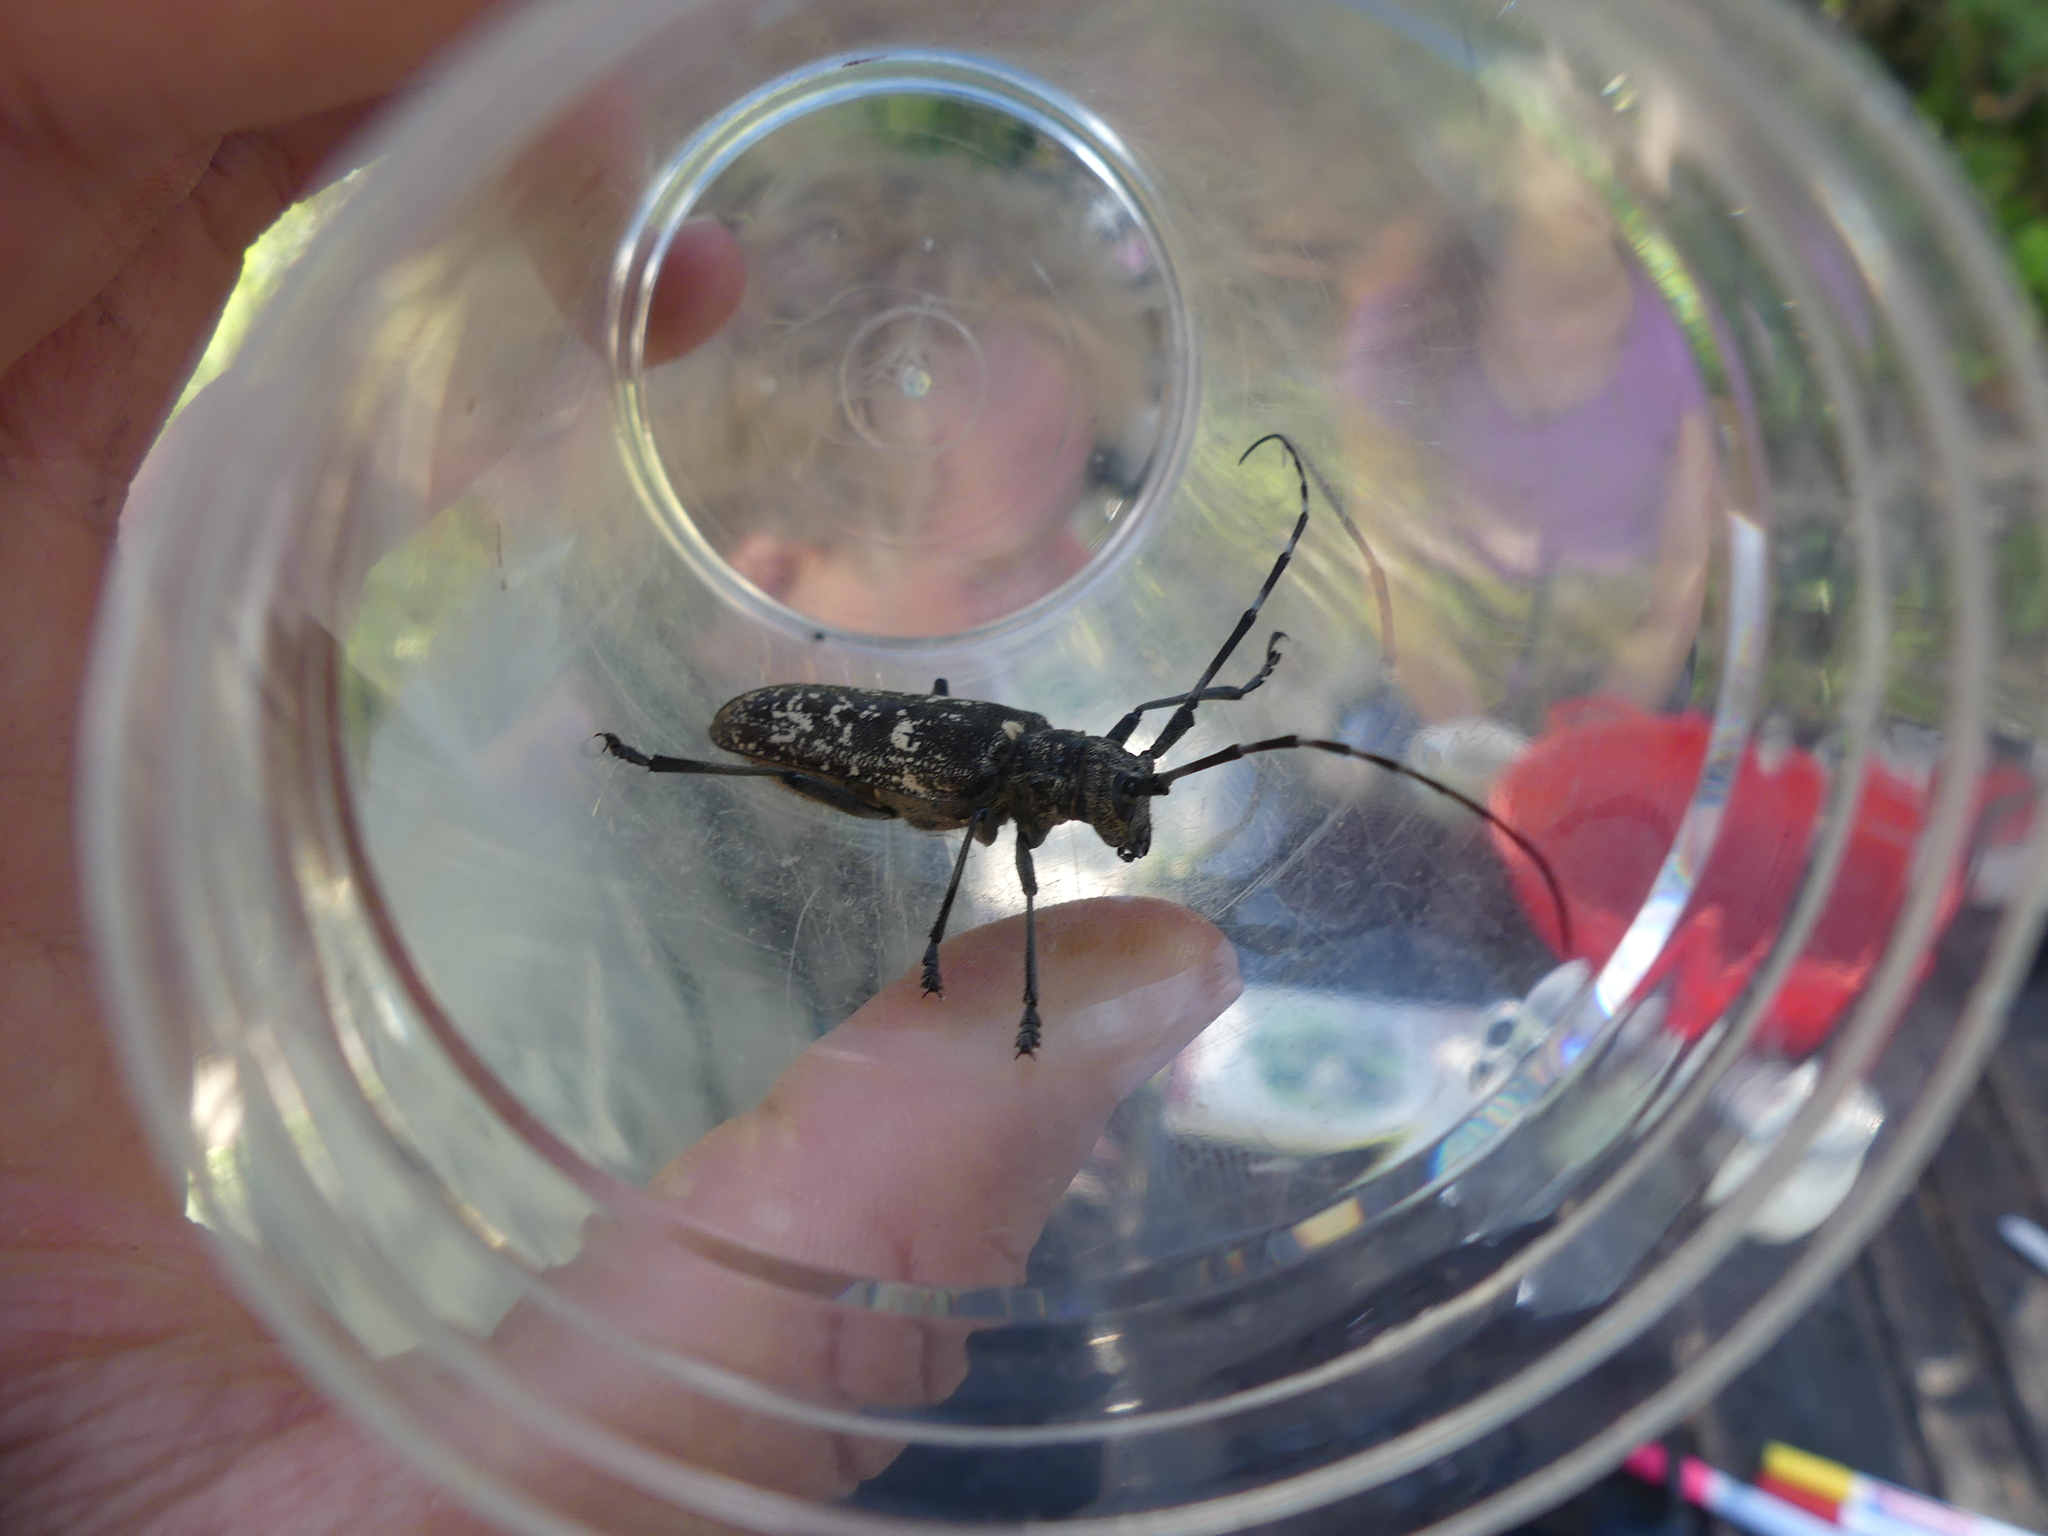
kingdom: Animalia
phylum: Arthropoda
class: Insecta
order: Coleoptera
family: Cerambycidae
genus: Monochamus
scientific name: Monochamus sartor
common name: Pine sawyer
